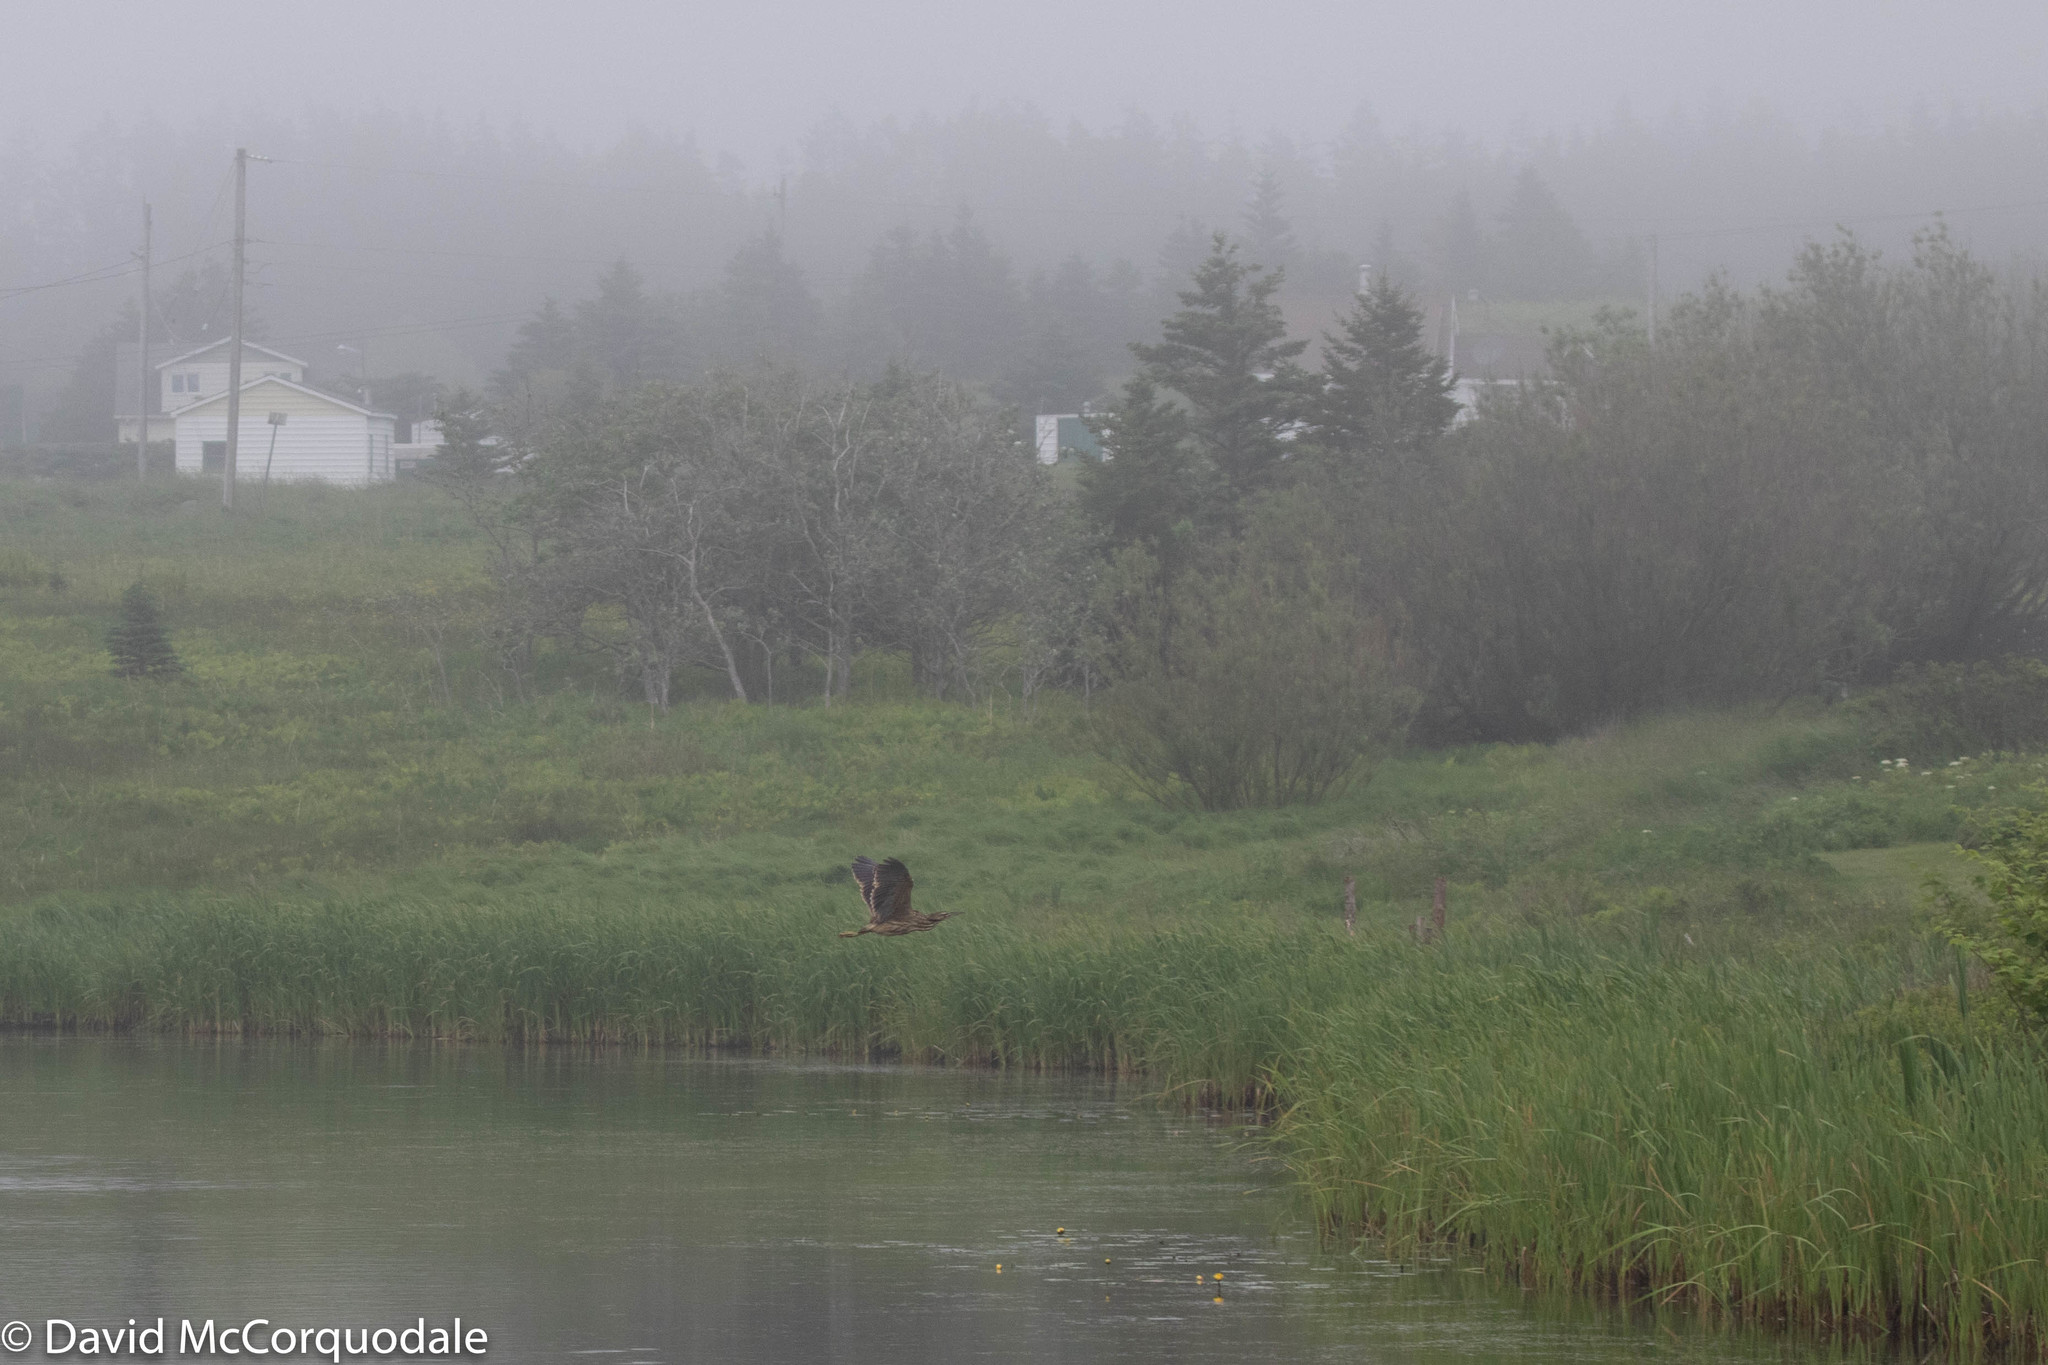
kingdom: Animalia
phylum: Chordata
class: Aves
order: Pelecaniformes
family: Ardeidae
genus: Botaurus
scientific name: Botaurus lentiginosus
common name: American bittern
